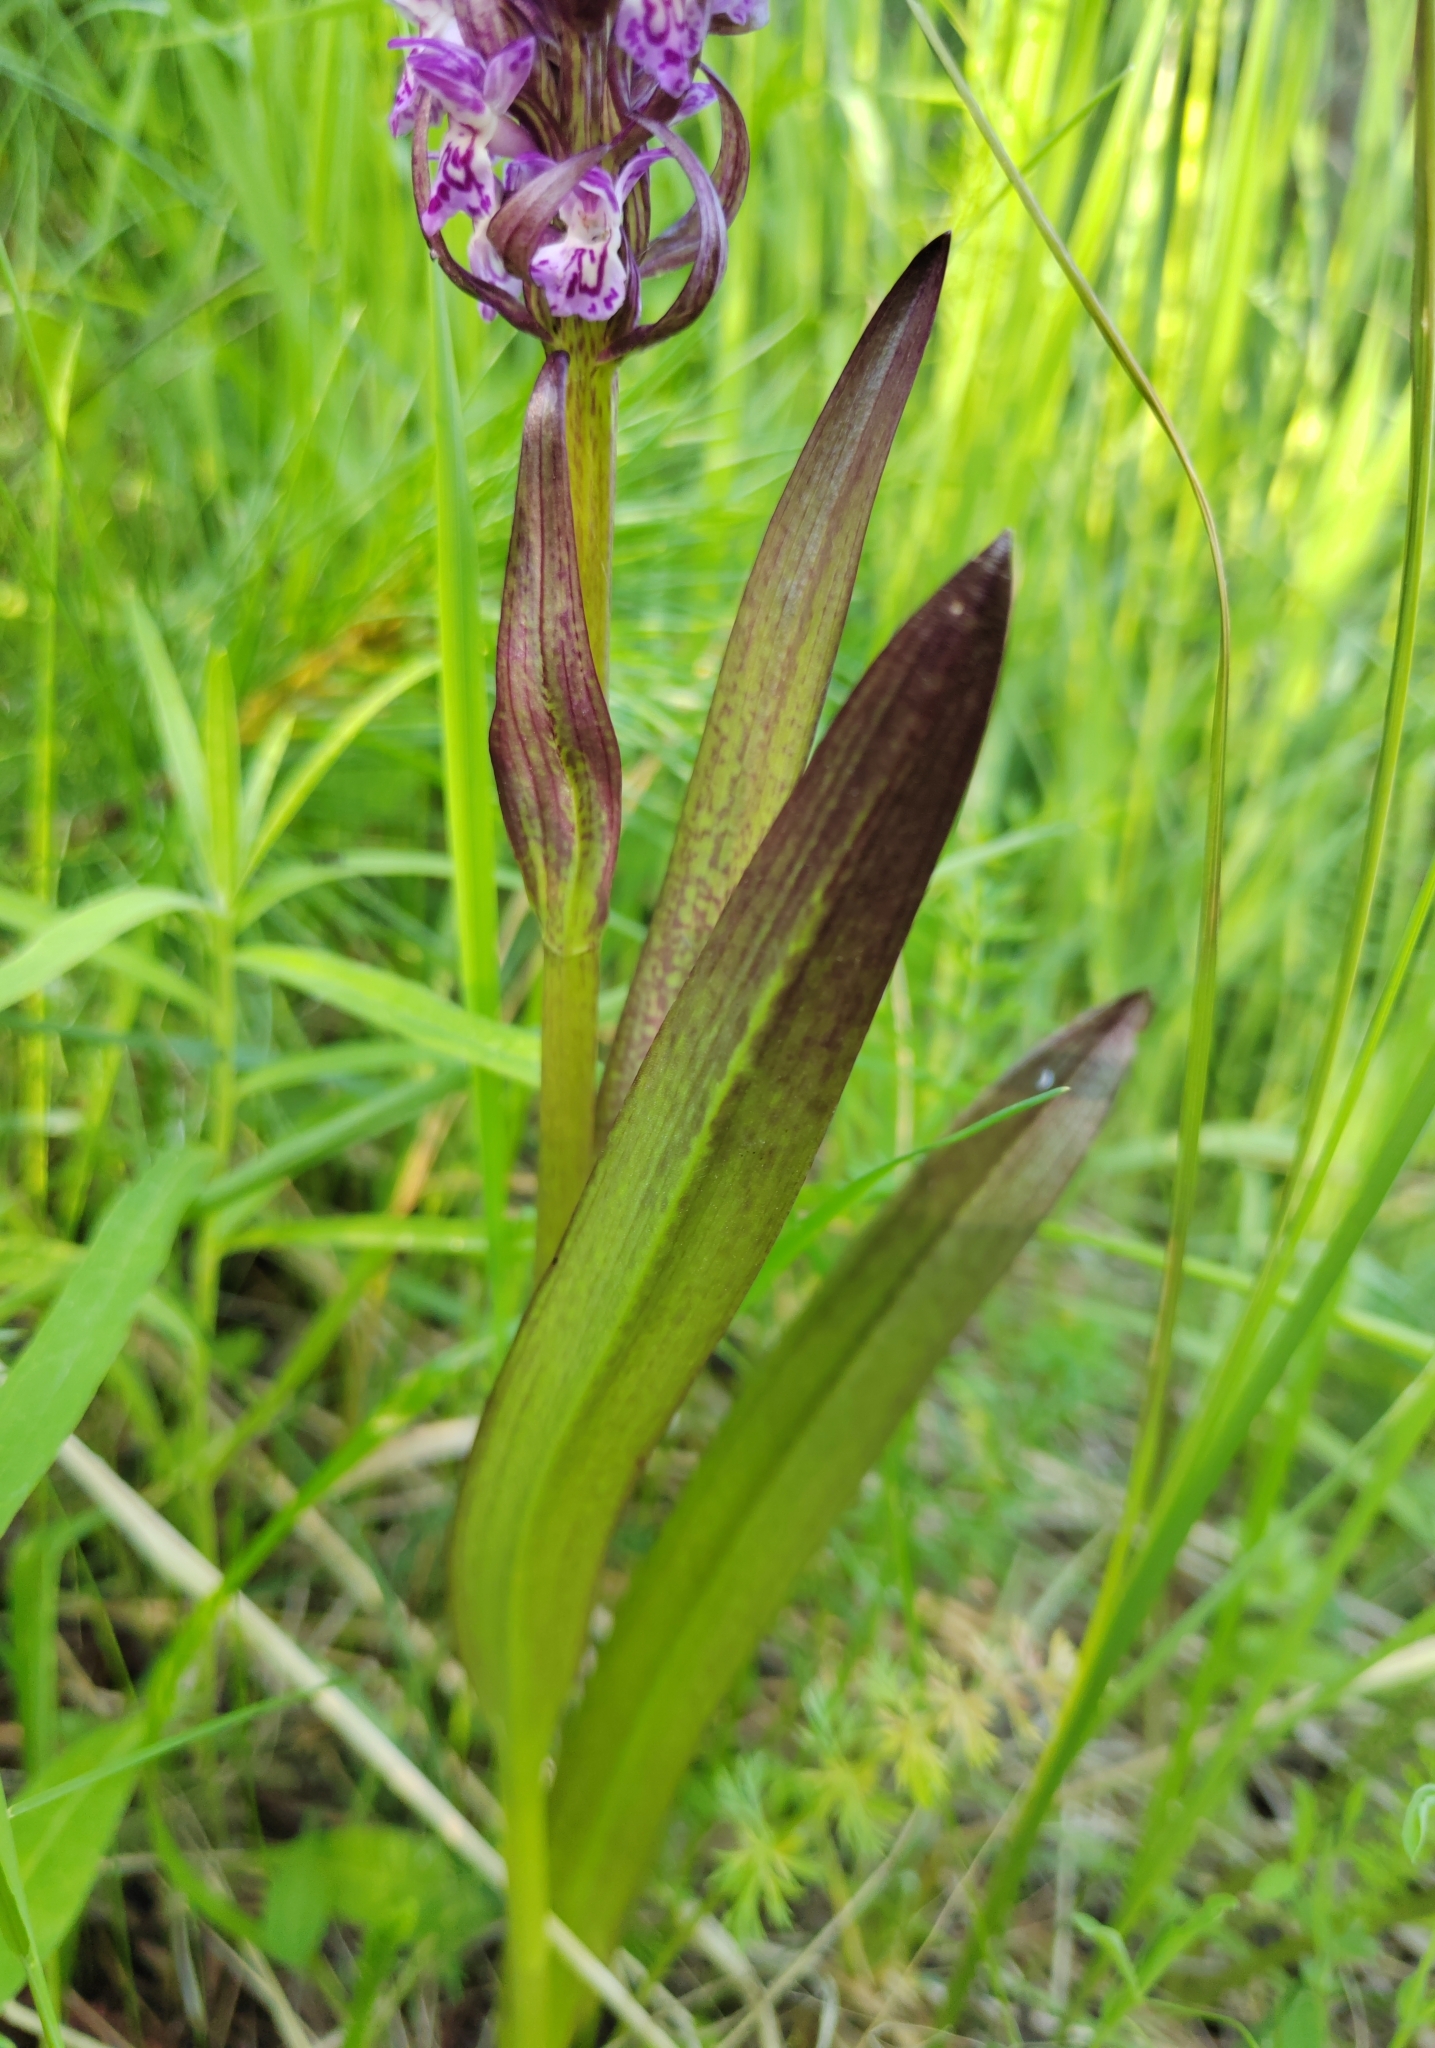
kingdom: Plantae
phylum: Tracheophyta
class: Liliopsida
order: Asparagales
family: Orchidaceae
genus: Dactylorhiza
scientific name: Dactylorhiza incarnata
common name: Early marsh-orchid
